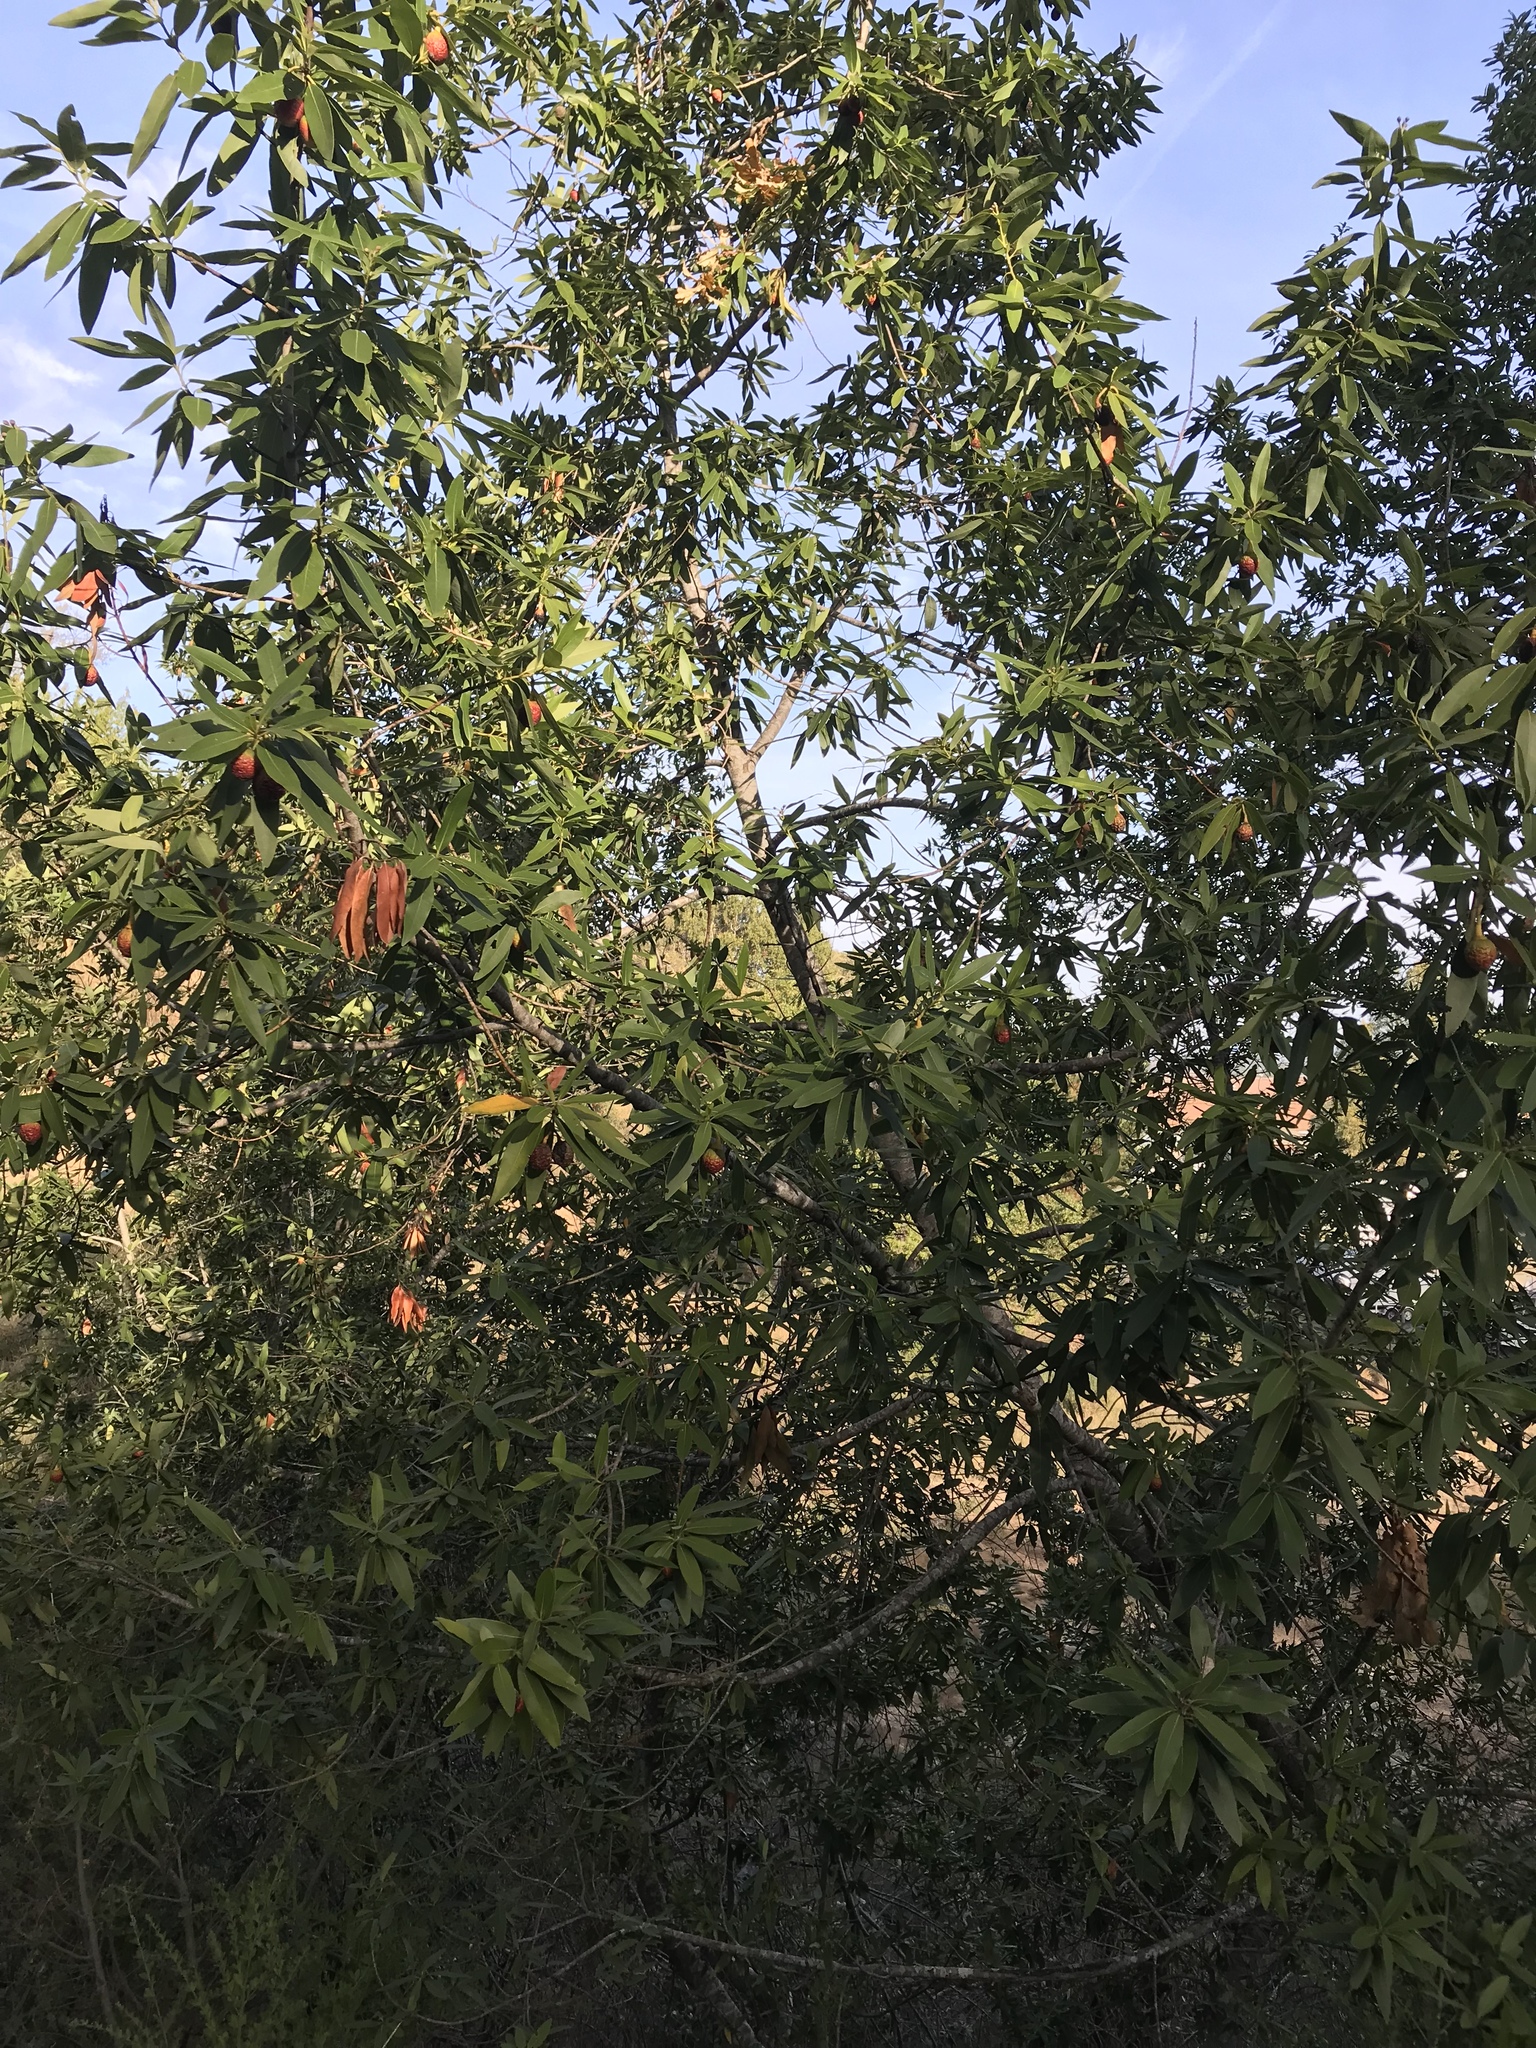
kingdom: Plantae
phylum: Tracheophyta
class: Magnoliopsida
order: Laurales
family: Lauraceae
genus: Umbellularia
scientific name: Umbellularia californica
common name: California bay
